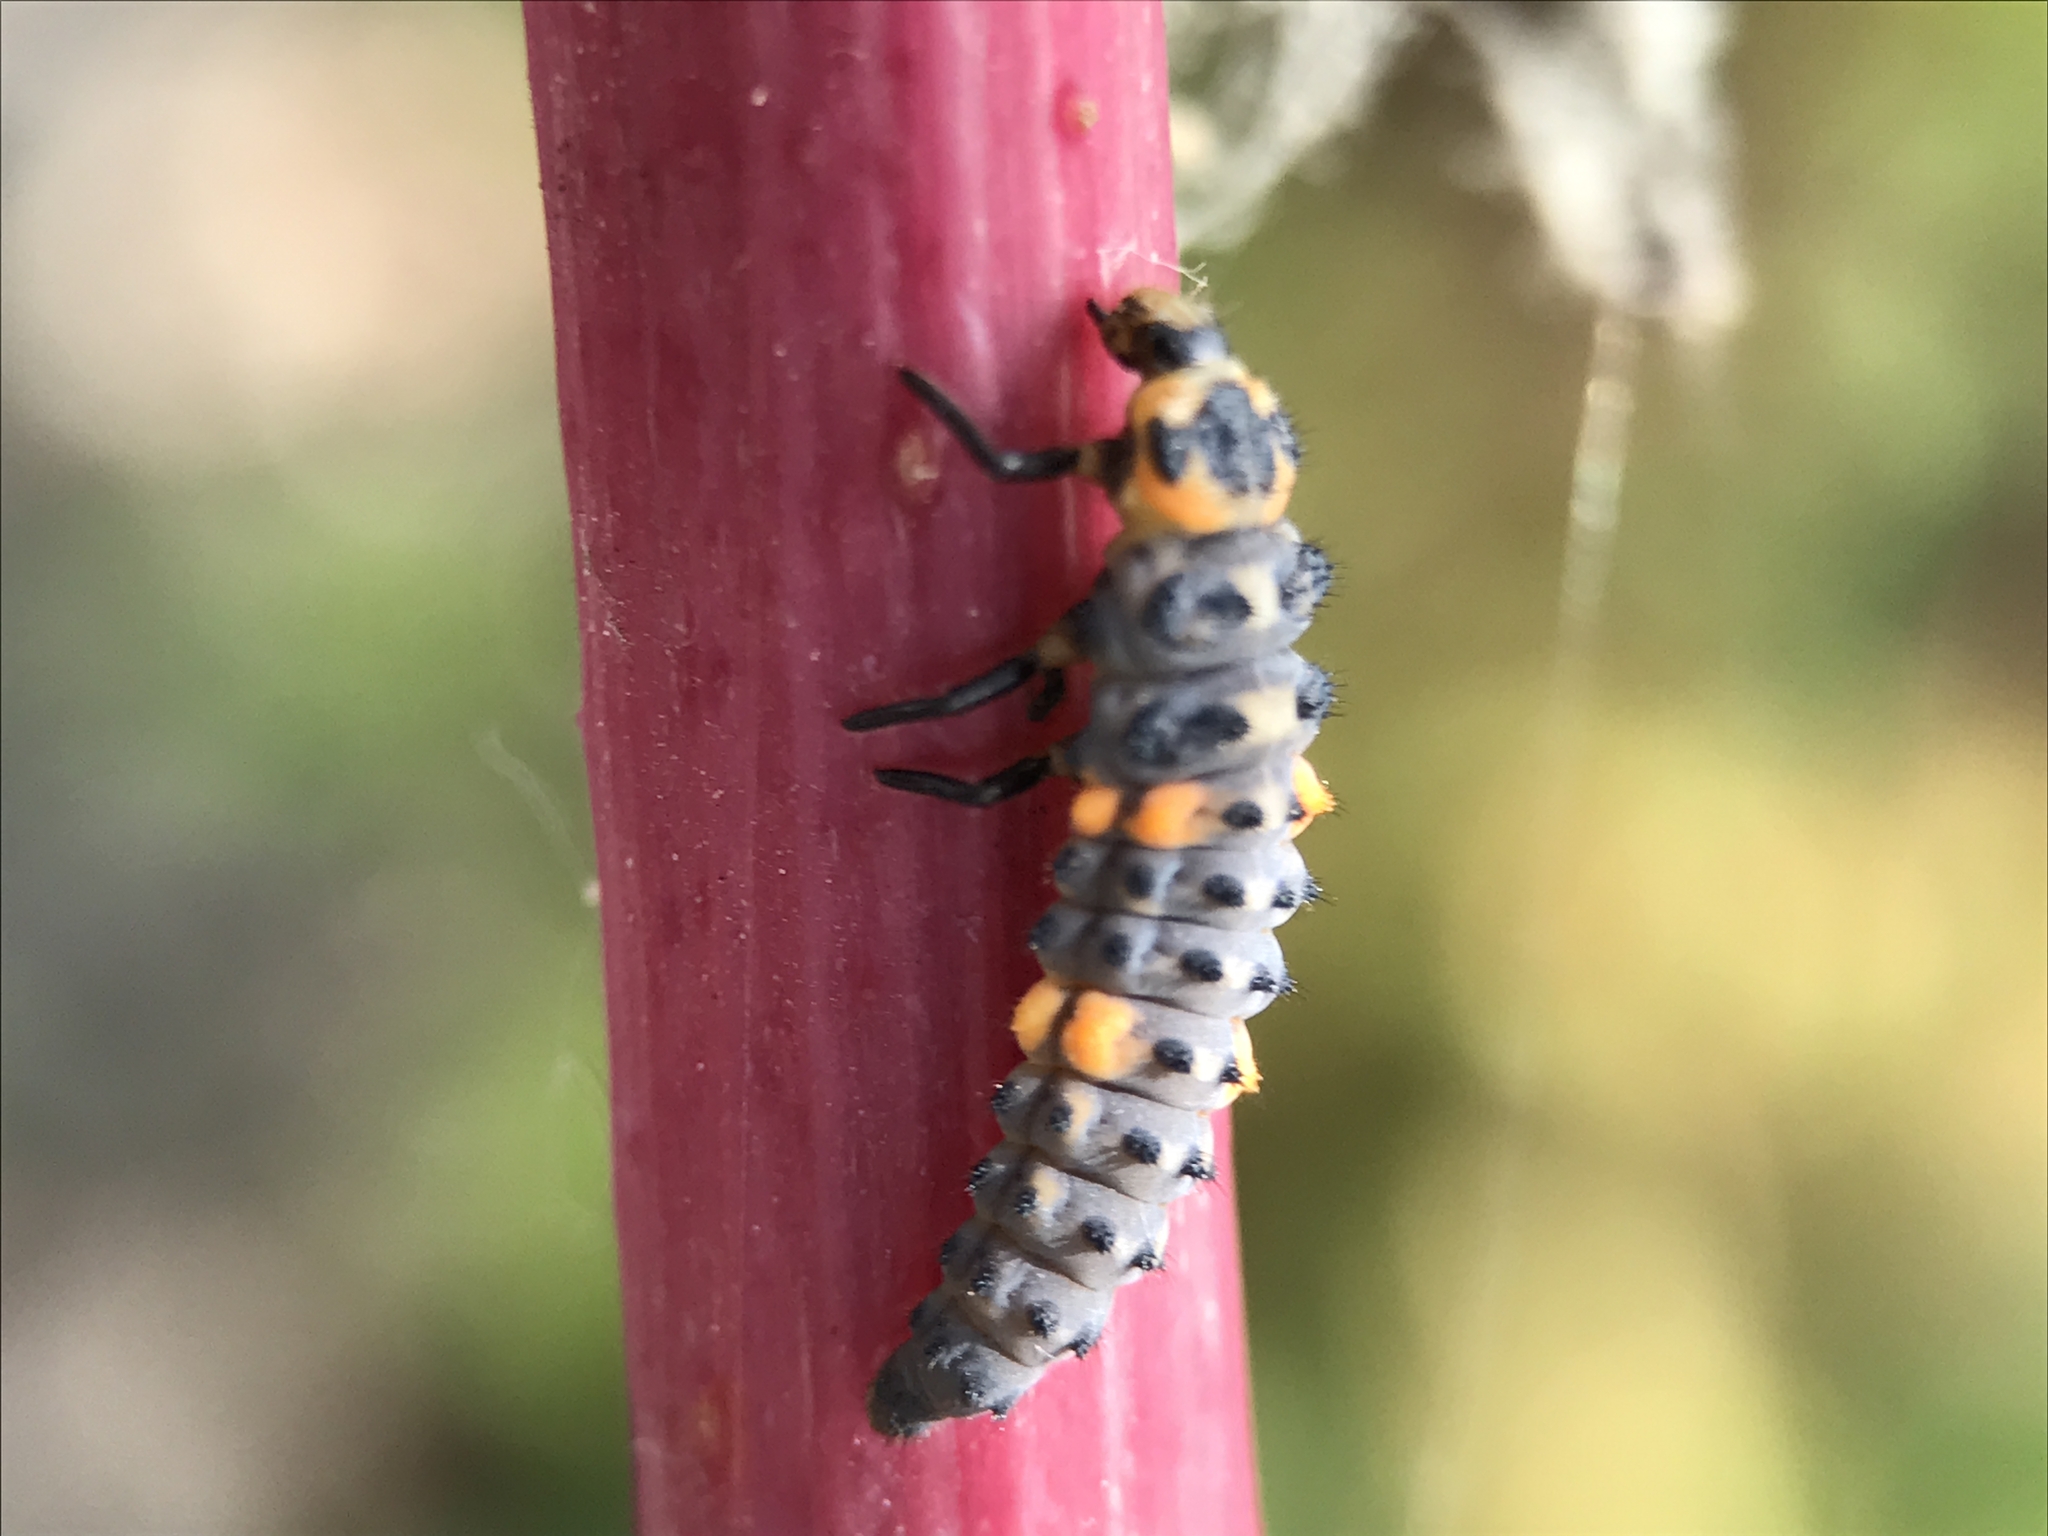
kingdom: Animalia
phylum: Arthropoda
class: Insecta
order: Coleoptera
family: Coccinellidae
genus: Coccinella
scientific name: Coccinella septempunctata
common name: Sevenspotted lady beetle
